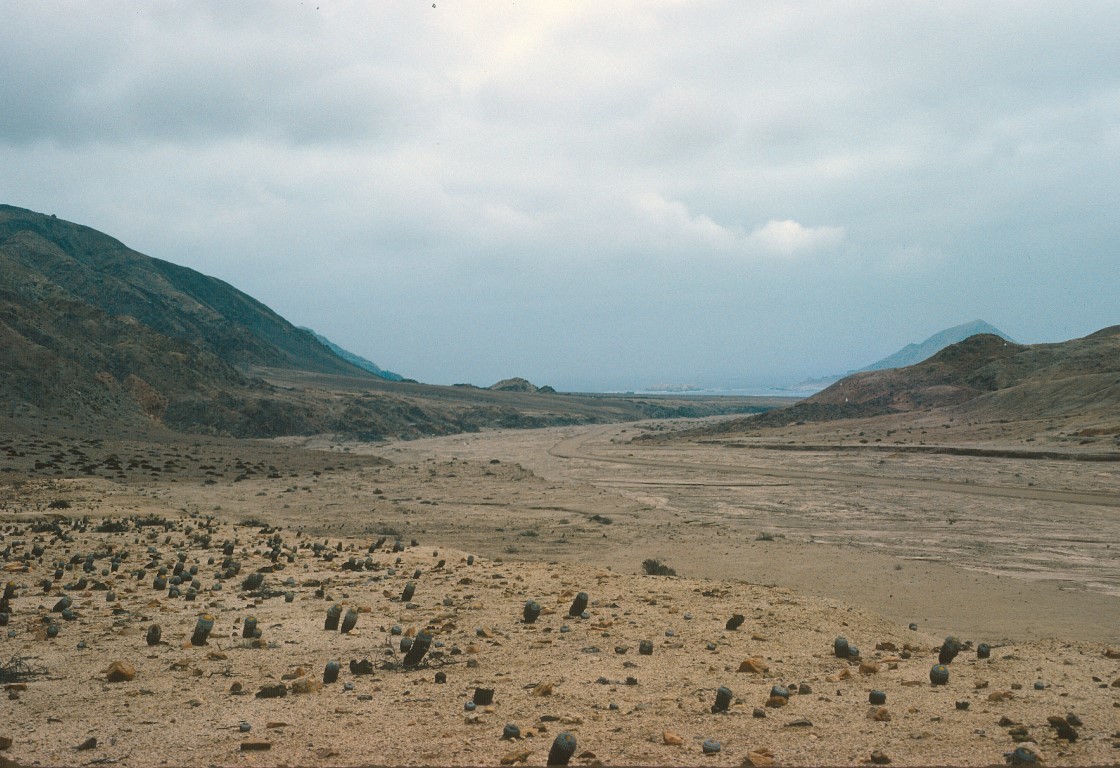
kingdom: Plantae
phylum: Tracheophyta
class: Magnoliopsida
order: Caryophyllales
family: Cactaceae
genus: Copiapoa
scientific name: Copiapoa cinerea
